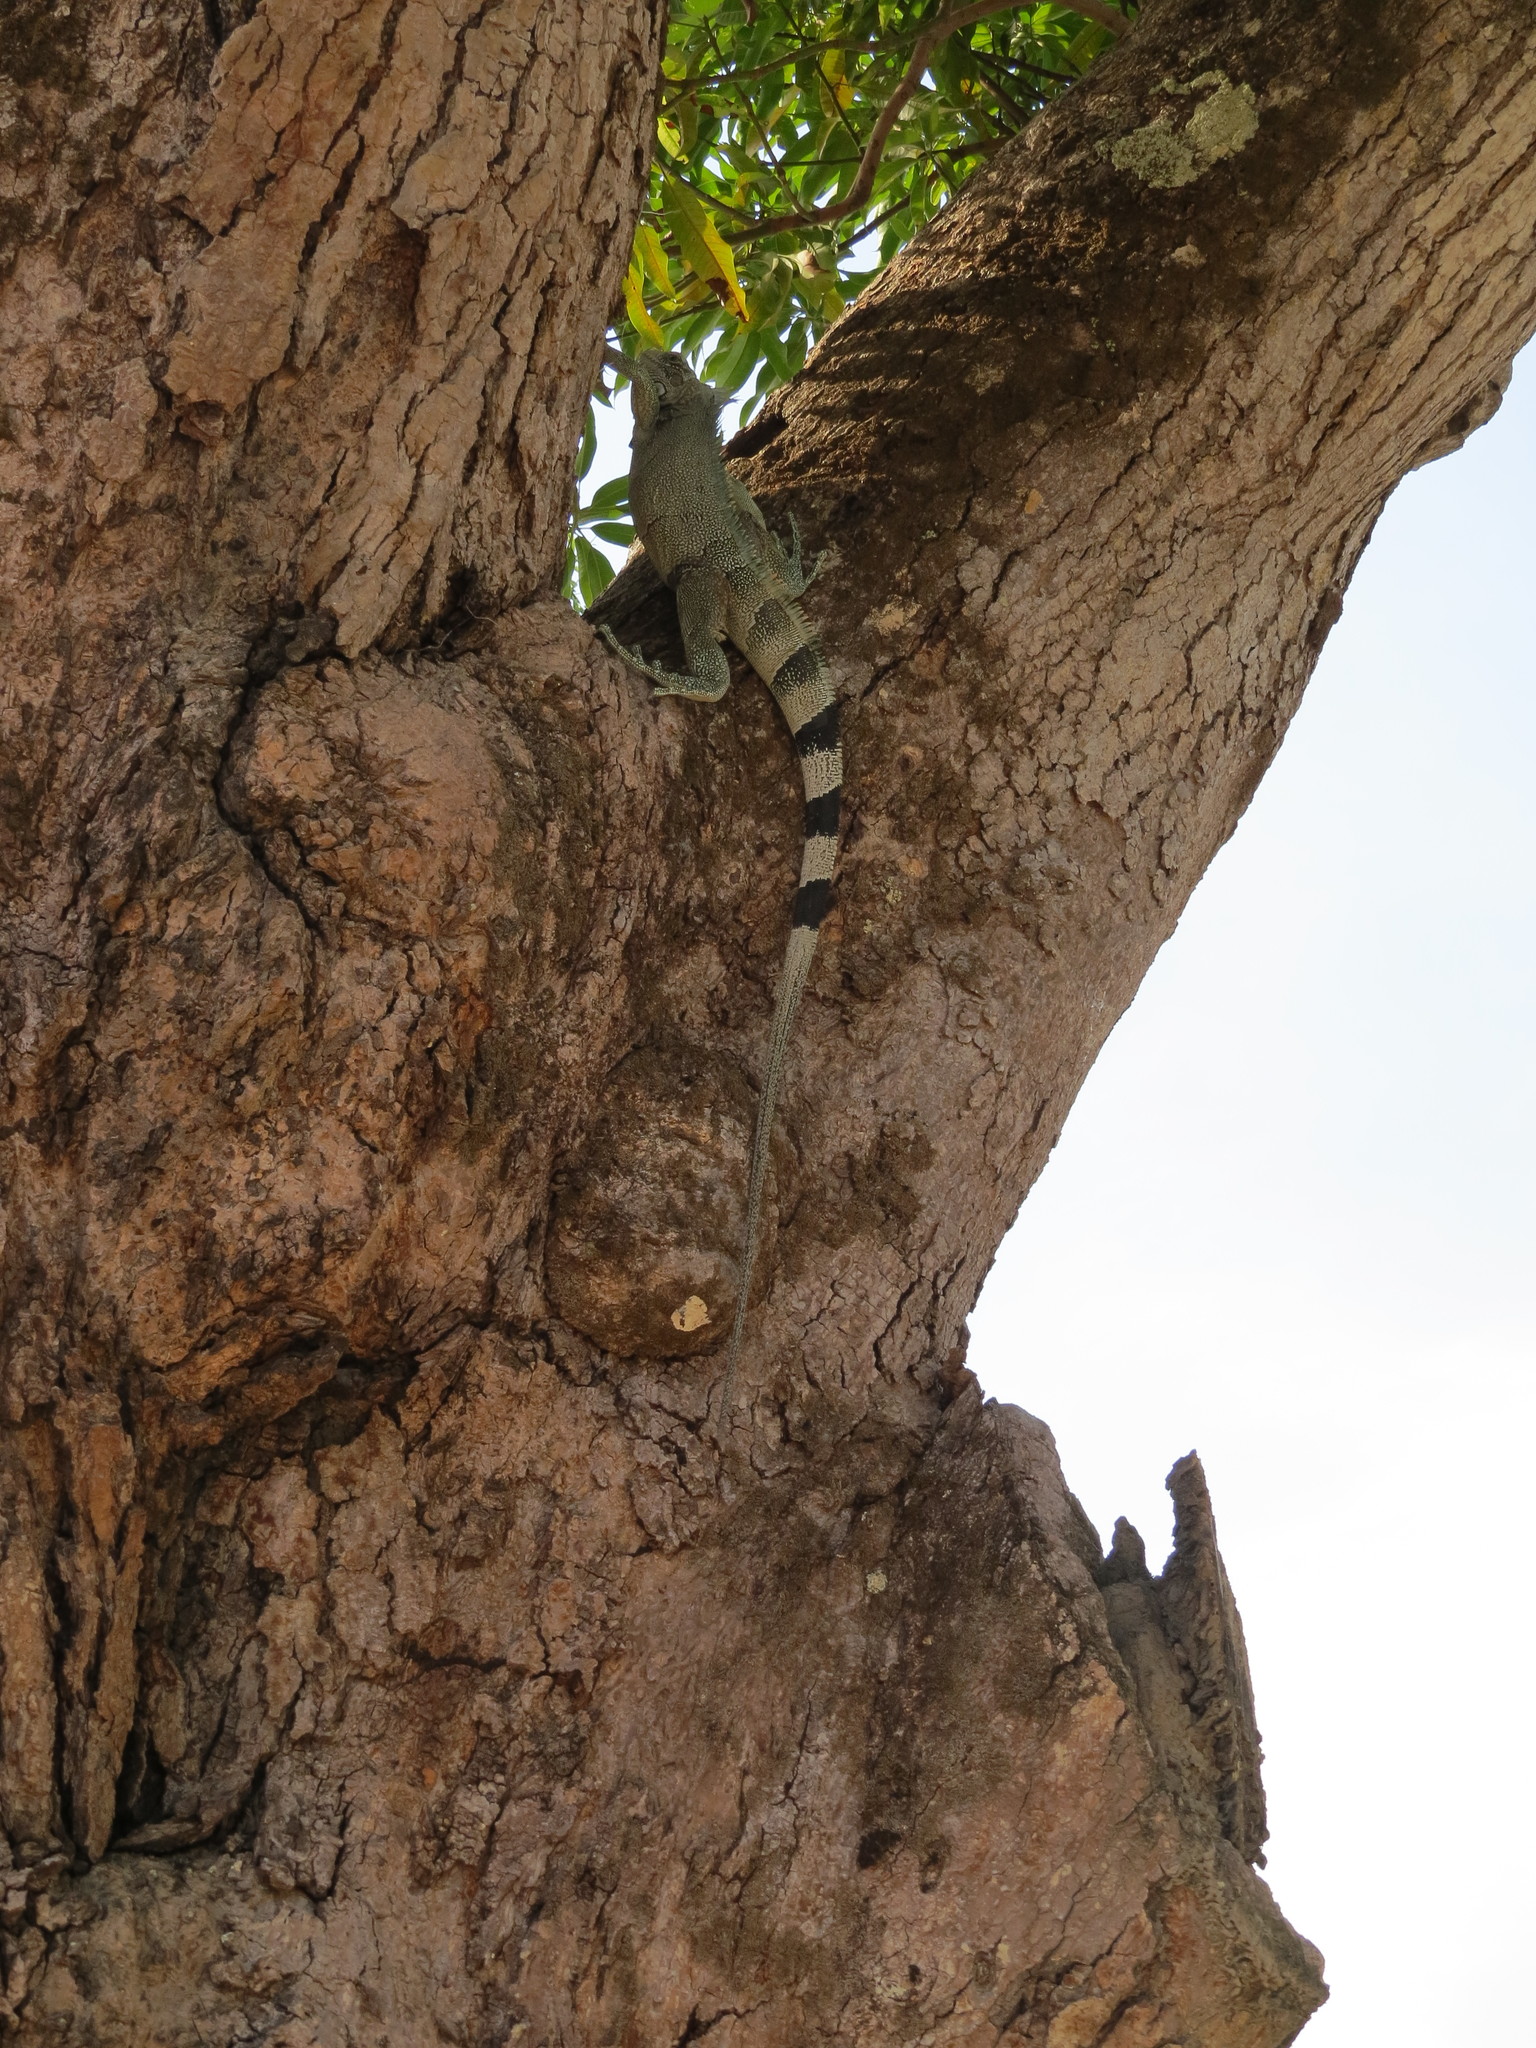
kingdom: Animalia
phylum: Chordata
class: Squamata
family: Iguanidae
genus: Iguana
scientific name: Iguana iguana
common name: Green iguana
